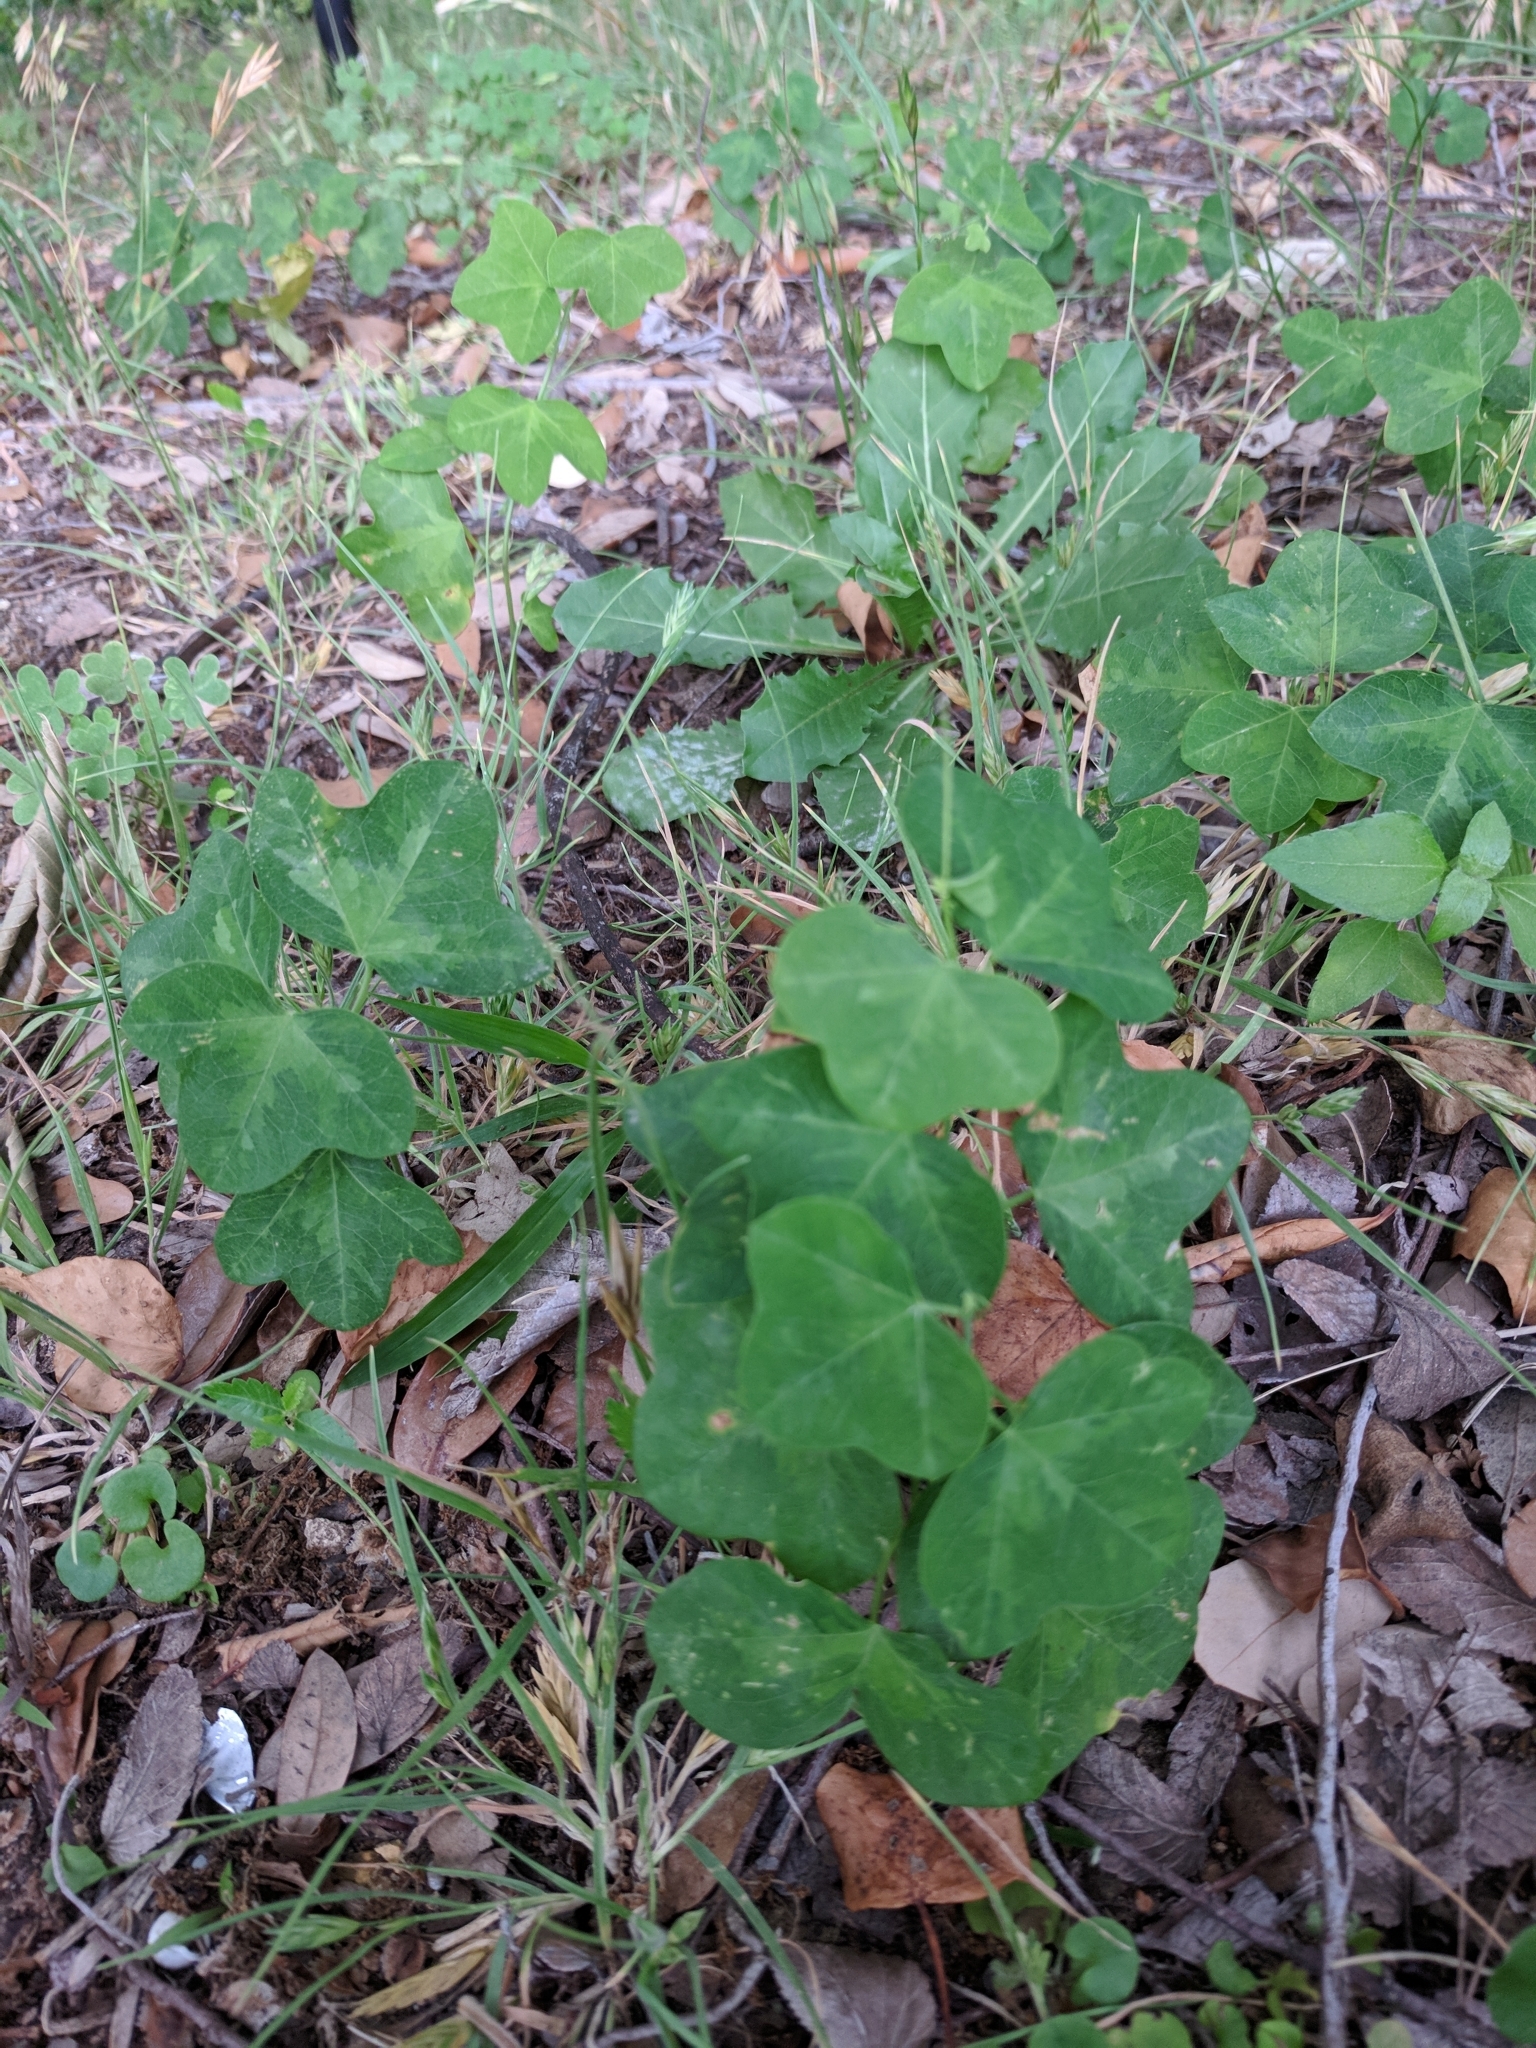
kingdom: Plantae
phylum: Tracheophyta
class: Magnoliopsida
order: Malpighiales
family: Passifloraceae
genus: Passiflora
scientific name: Passiflora lutea
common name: Yellow passionflower
